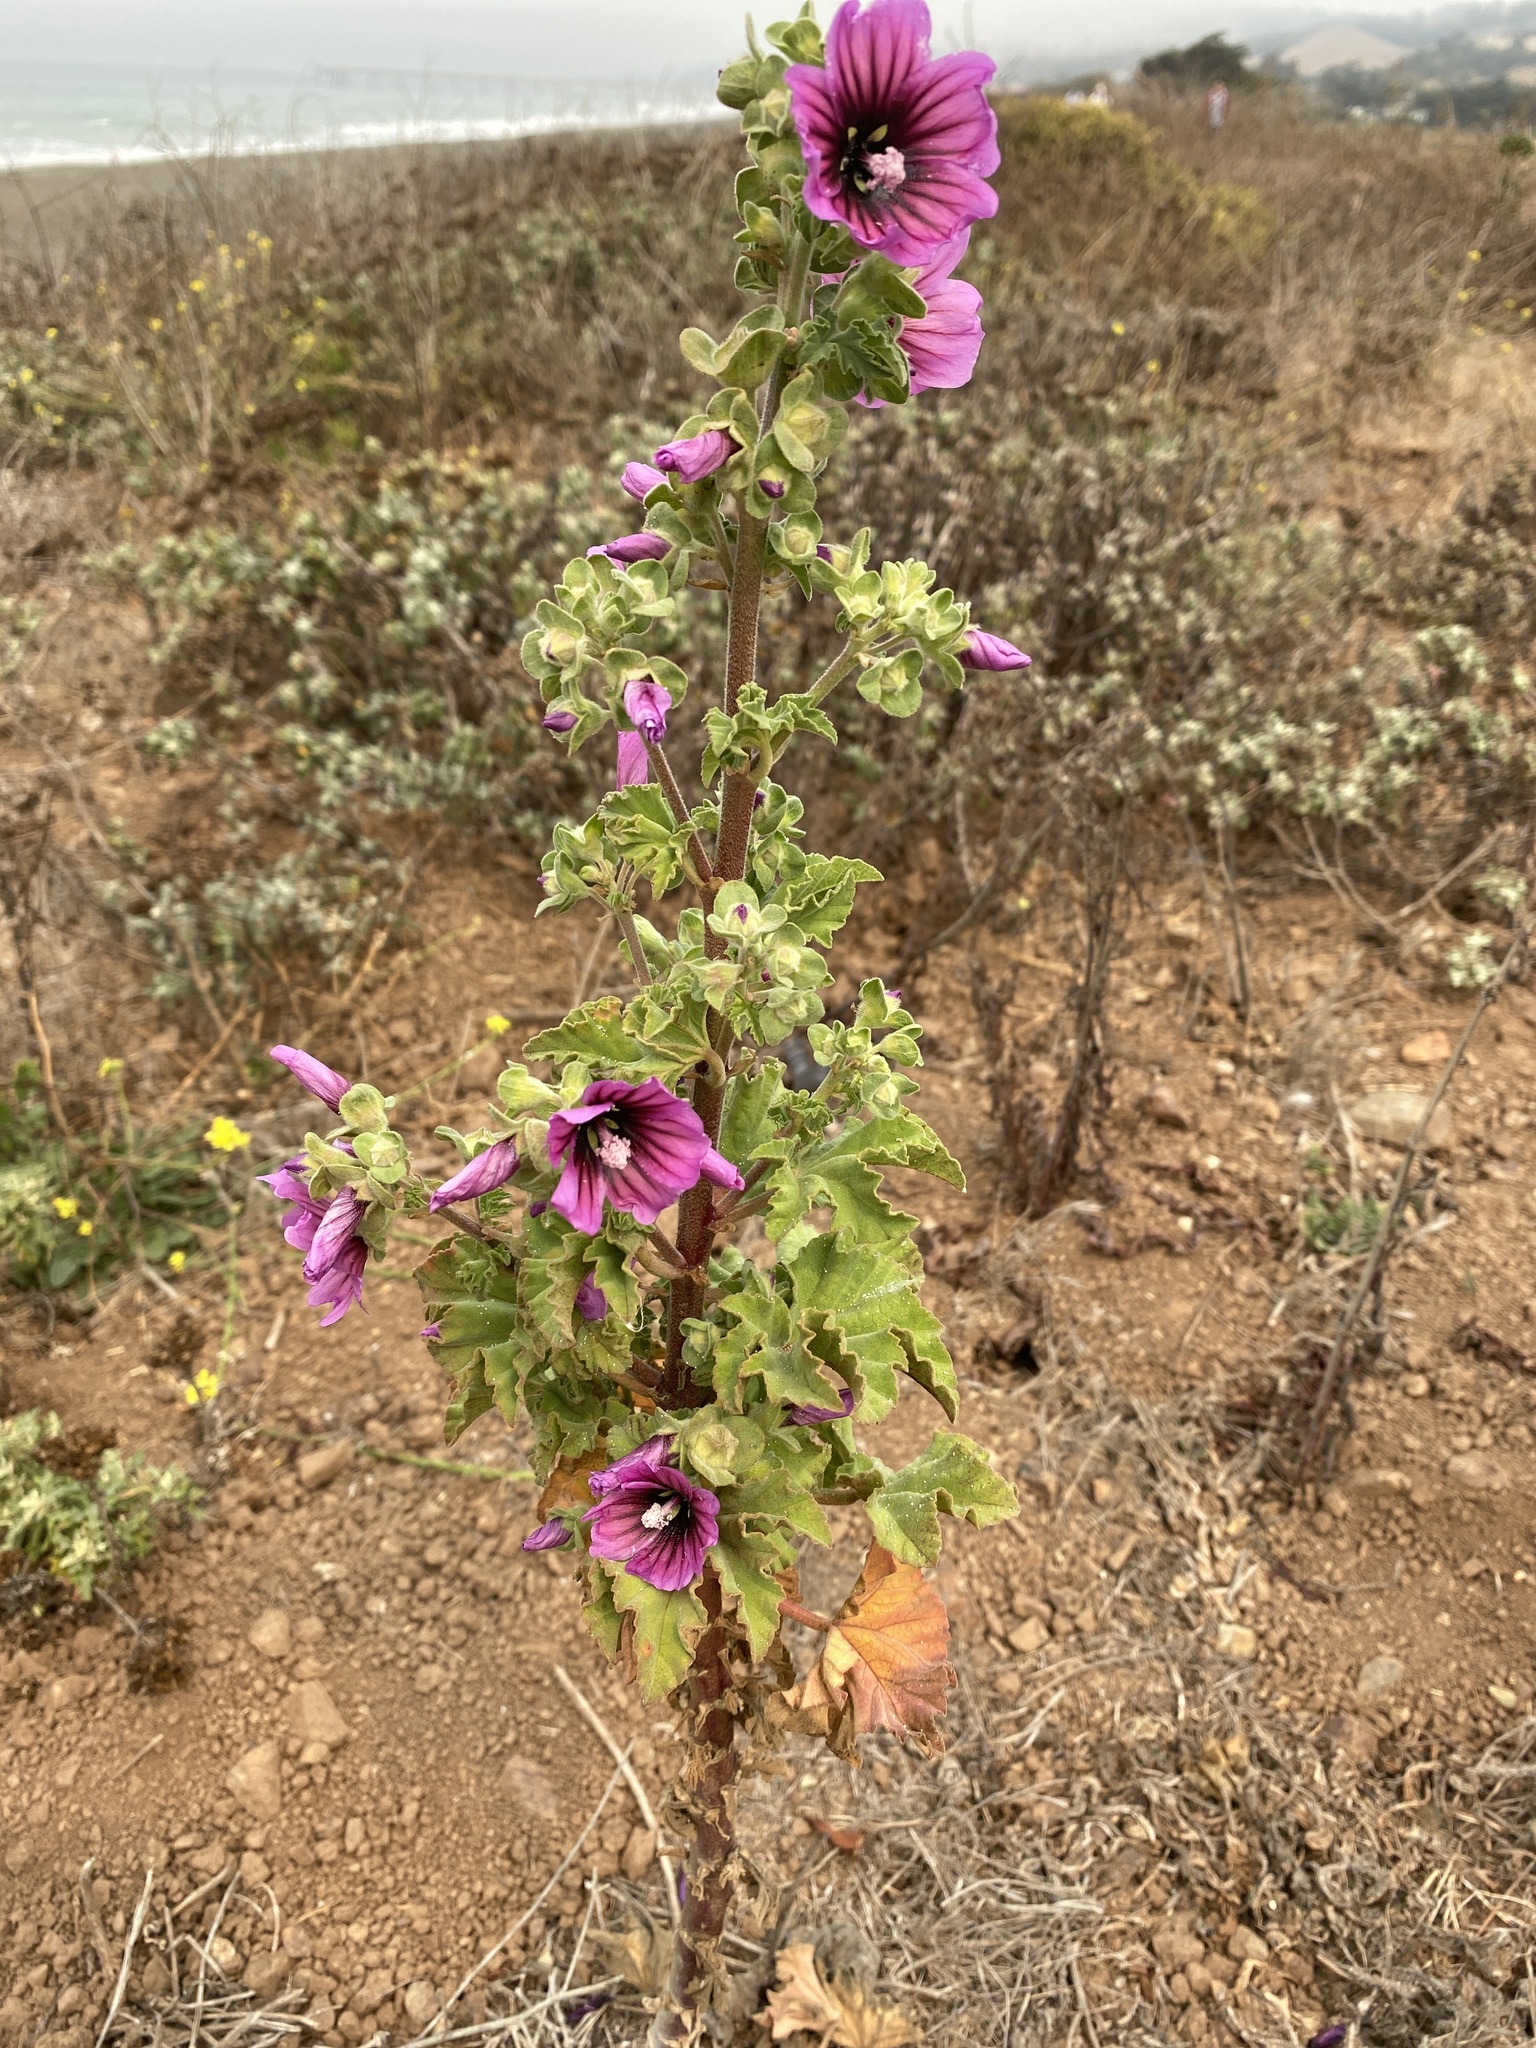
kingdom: Plantae
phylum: Tracheophyta
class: Magnoliopsida
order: Malvales
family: Malvaceae
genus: Malva
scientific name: Malva arborea
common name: Tree mallow
